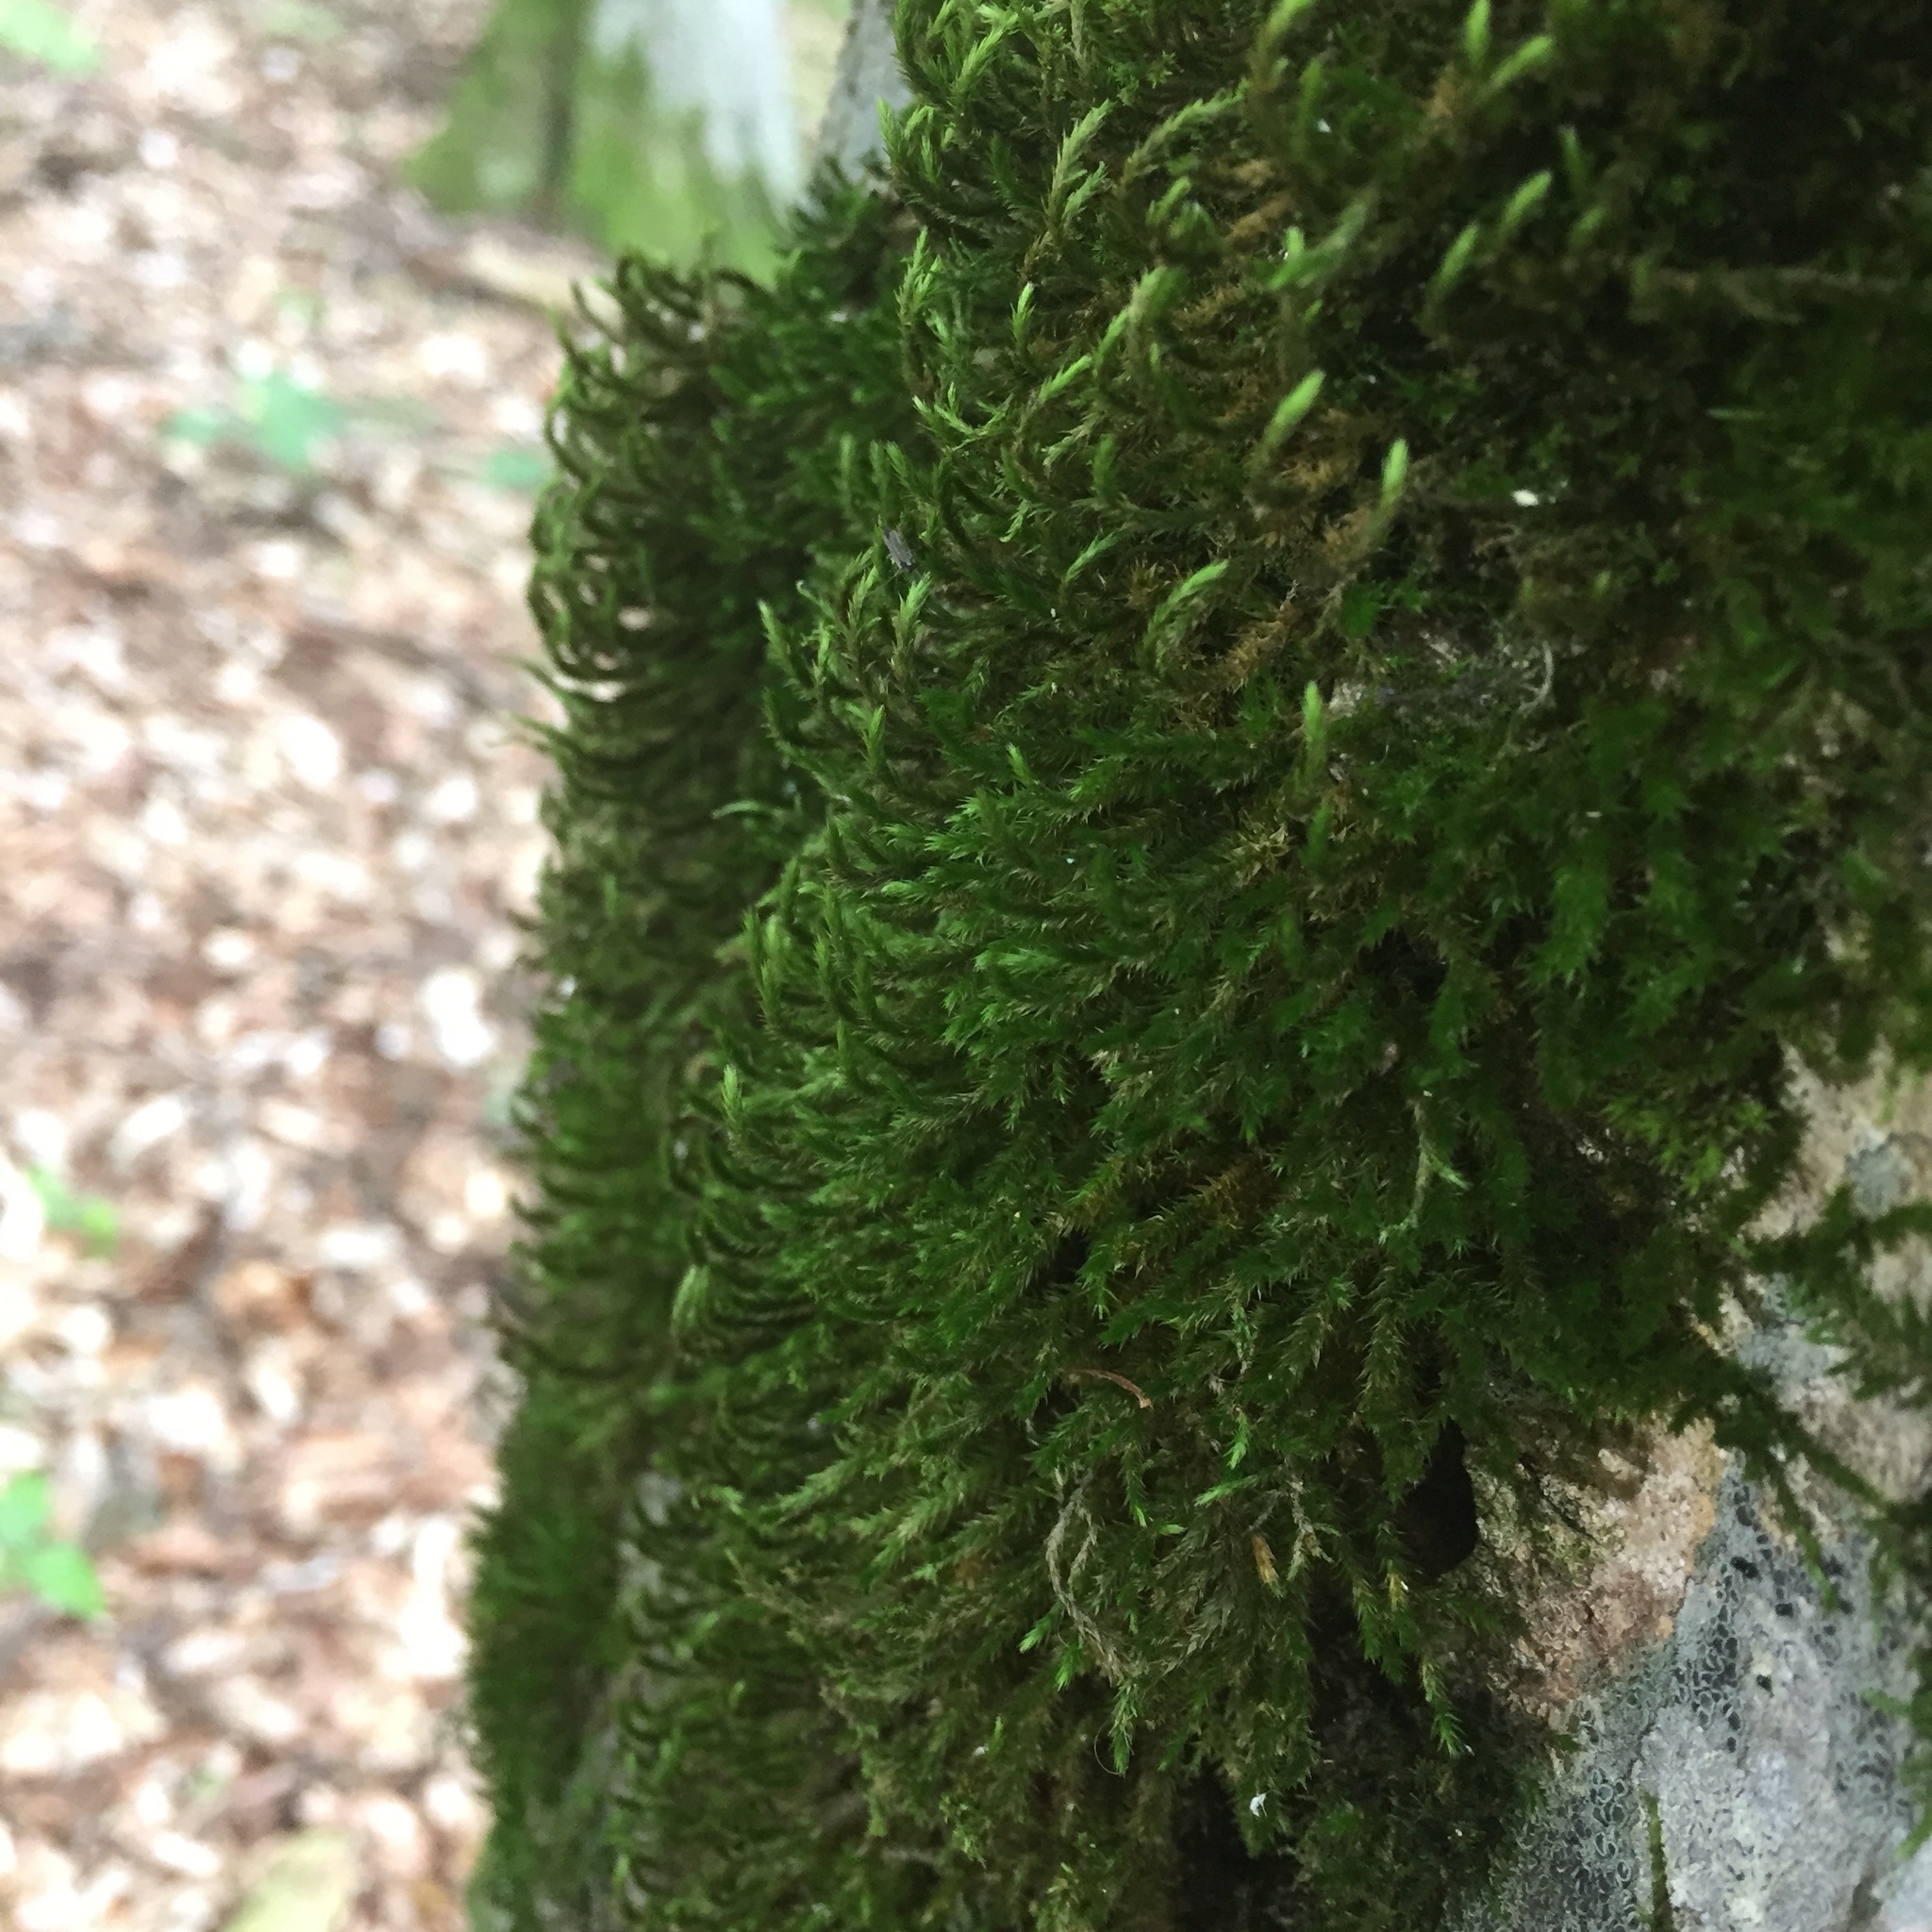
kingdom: Plantae
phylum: Bryophyta
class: Bryopsida
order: Hypnales
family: Leucodontaceae
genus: Leucodon
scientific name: Leucodon sciuroides
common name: Squirrel-tail moss
